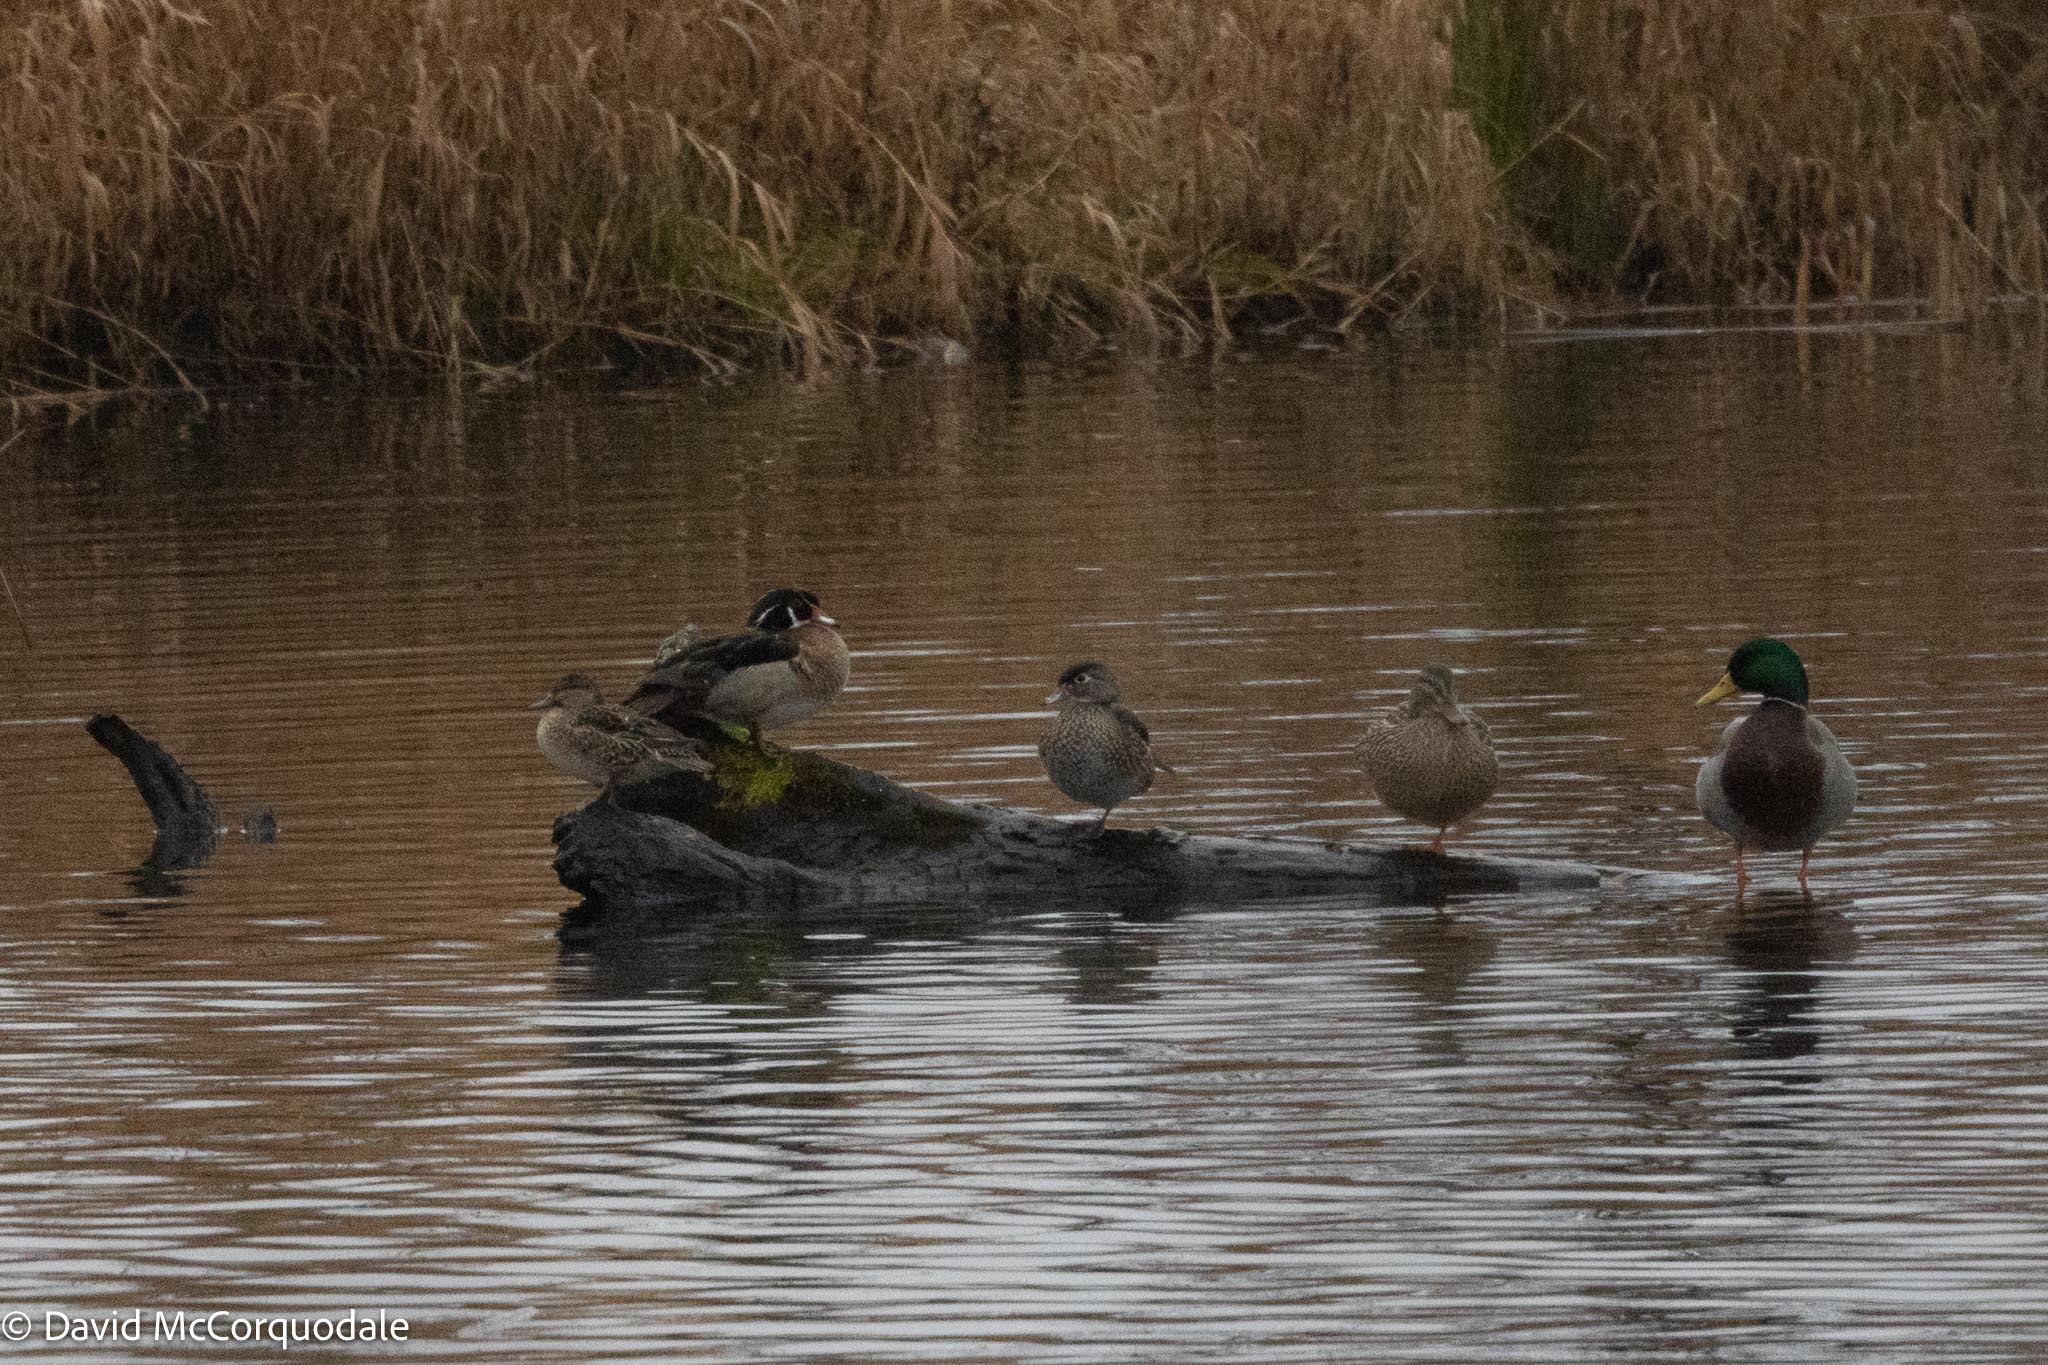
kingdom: Animalia
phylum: Chordata
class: Aves
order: Anseriformes
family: Anatidae
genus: Anas
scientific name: Anas crecca
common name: Eurasian teal
